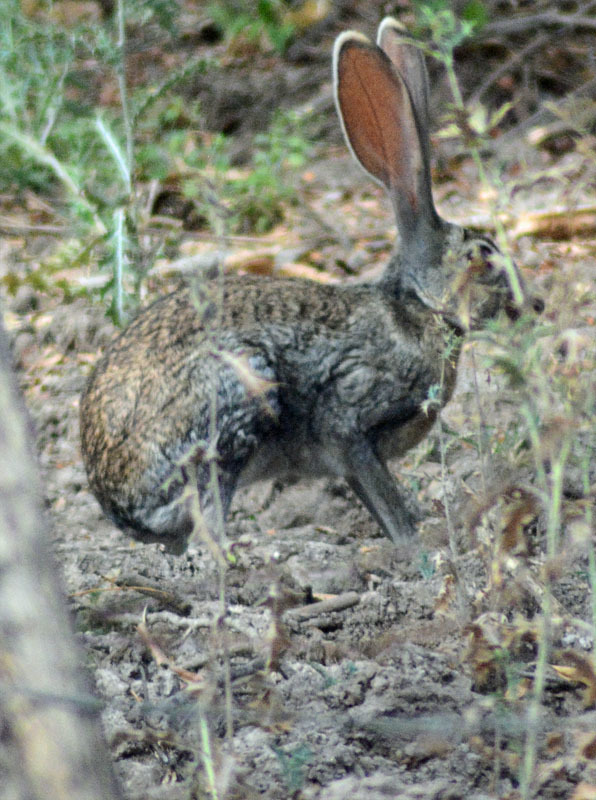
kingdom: Animalia
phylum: Chordata
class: Mammalia
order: Lagomorpha
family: Leporidae
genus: Lepus
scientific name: Lepus alleni
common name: Antelope jackrabbit
